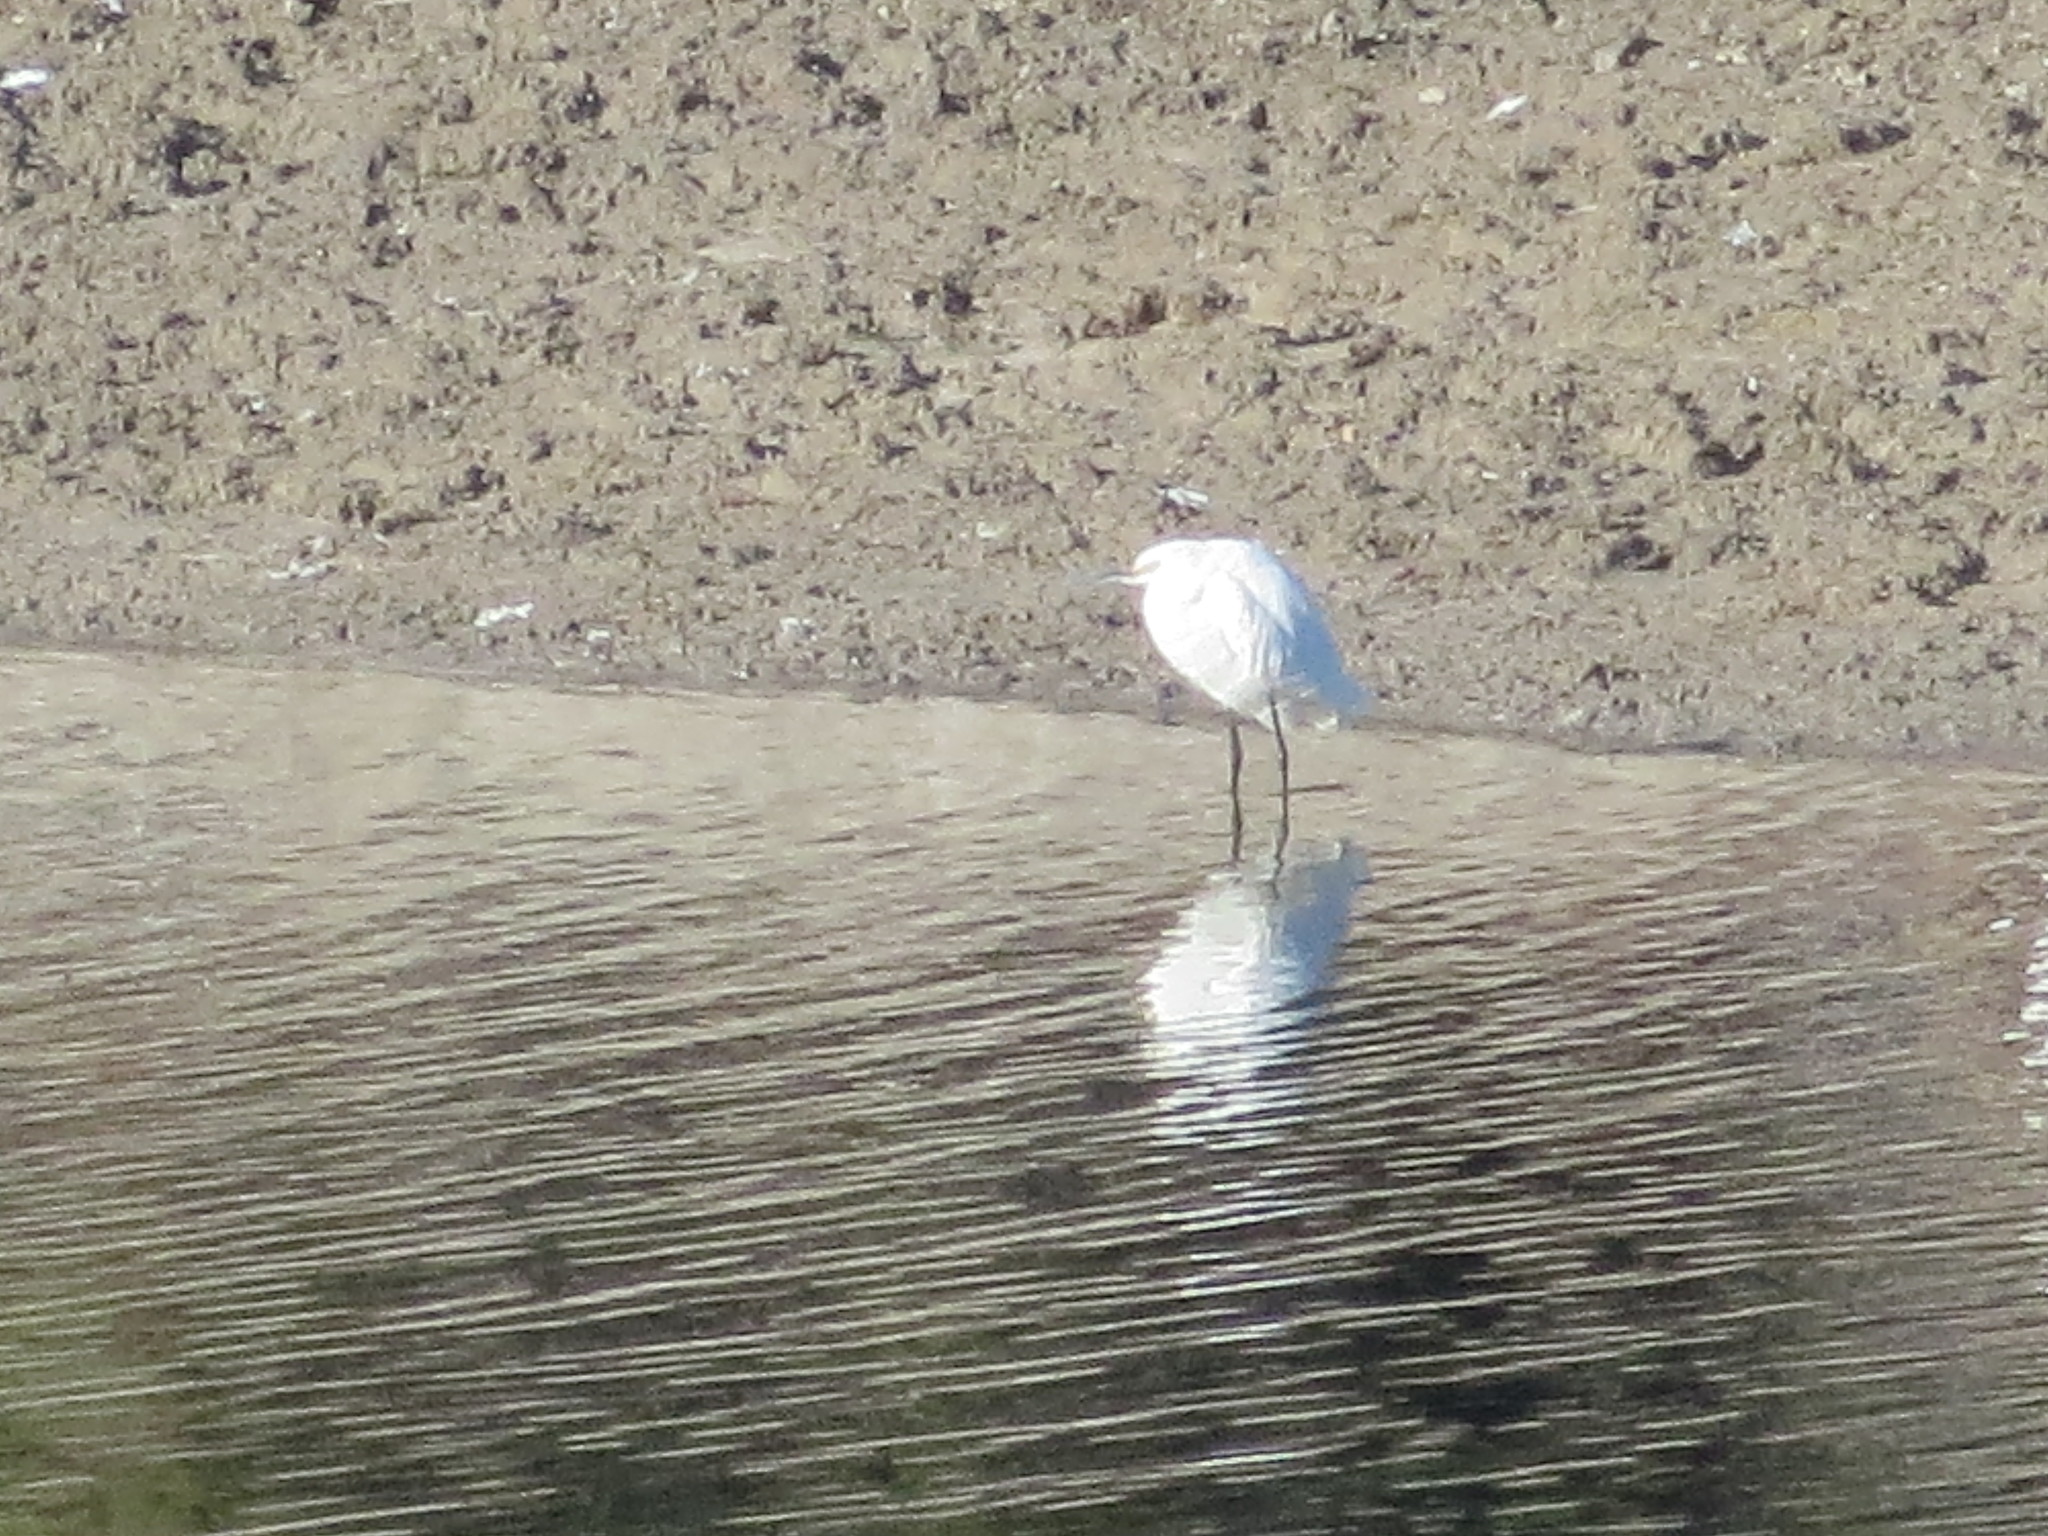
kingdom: Animalia
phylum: Chordata
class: Aves
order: Pelecaniformes
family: Ardeidae
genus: Egretta
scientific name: Egretta thula
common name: Snowy egret
